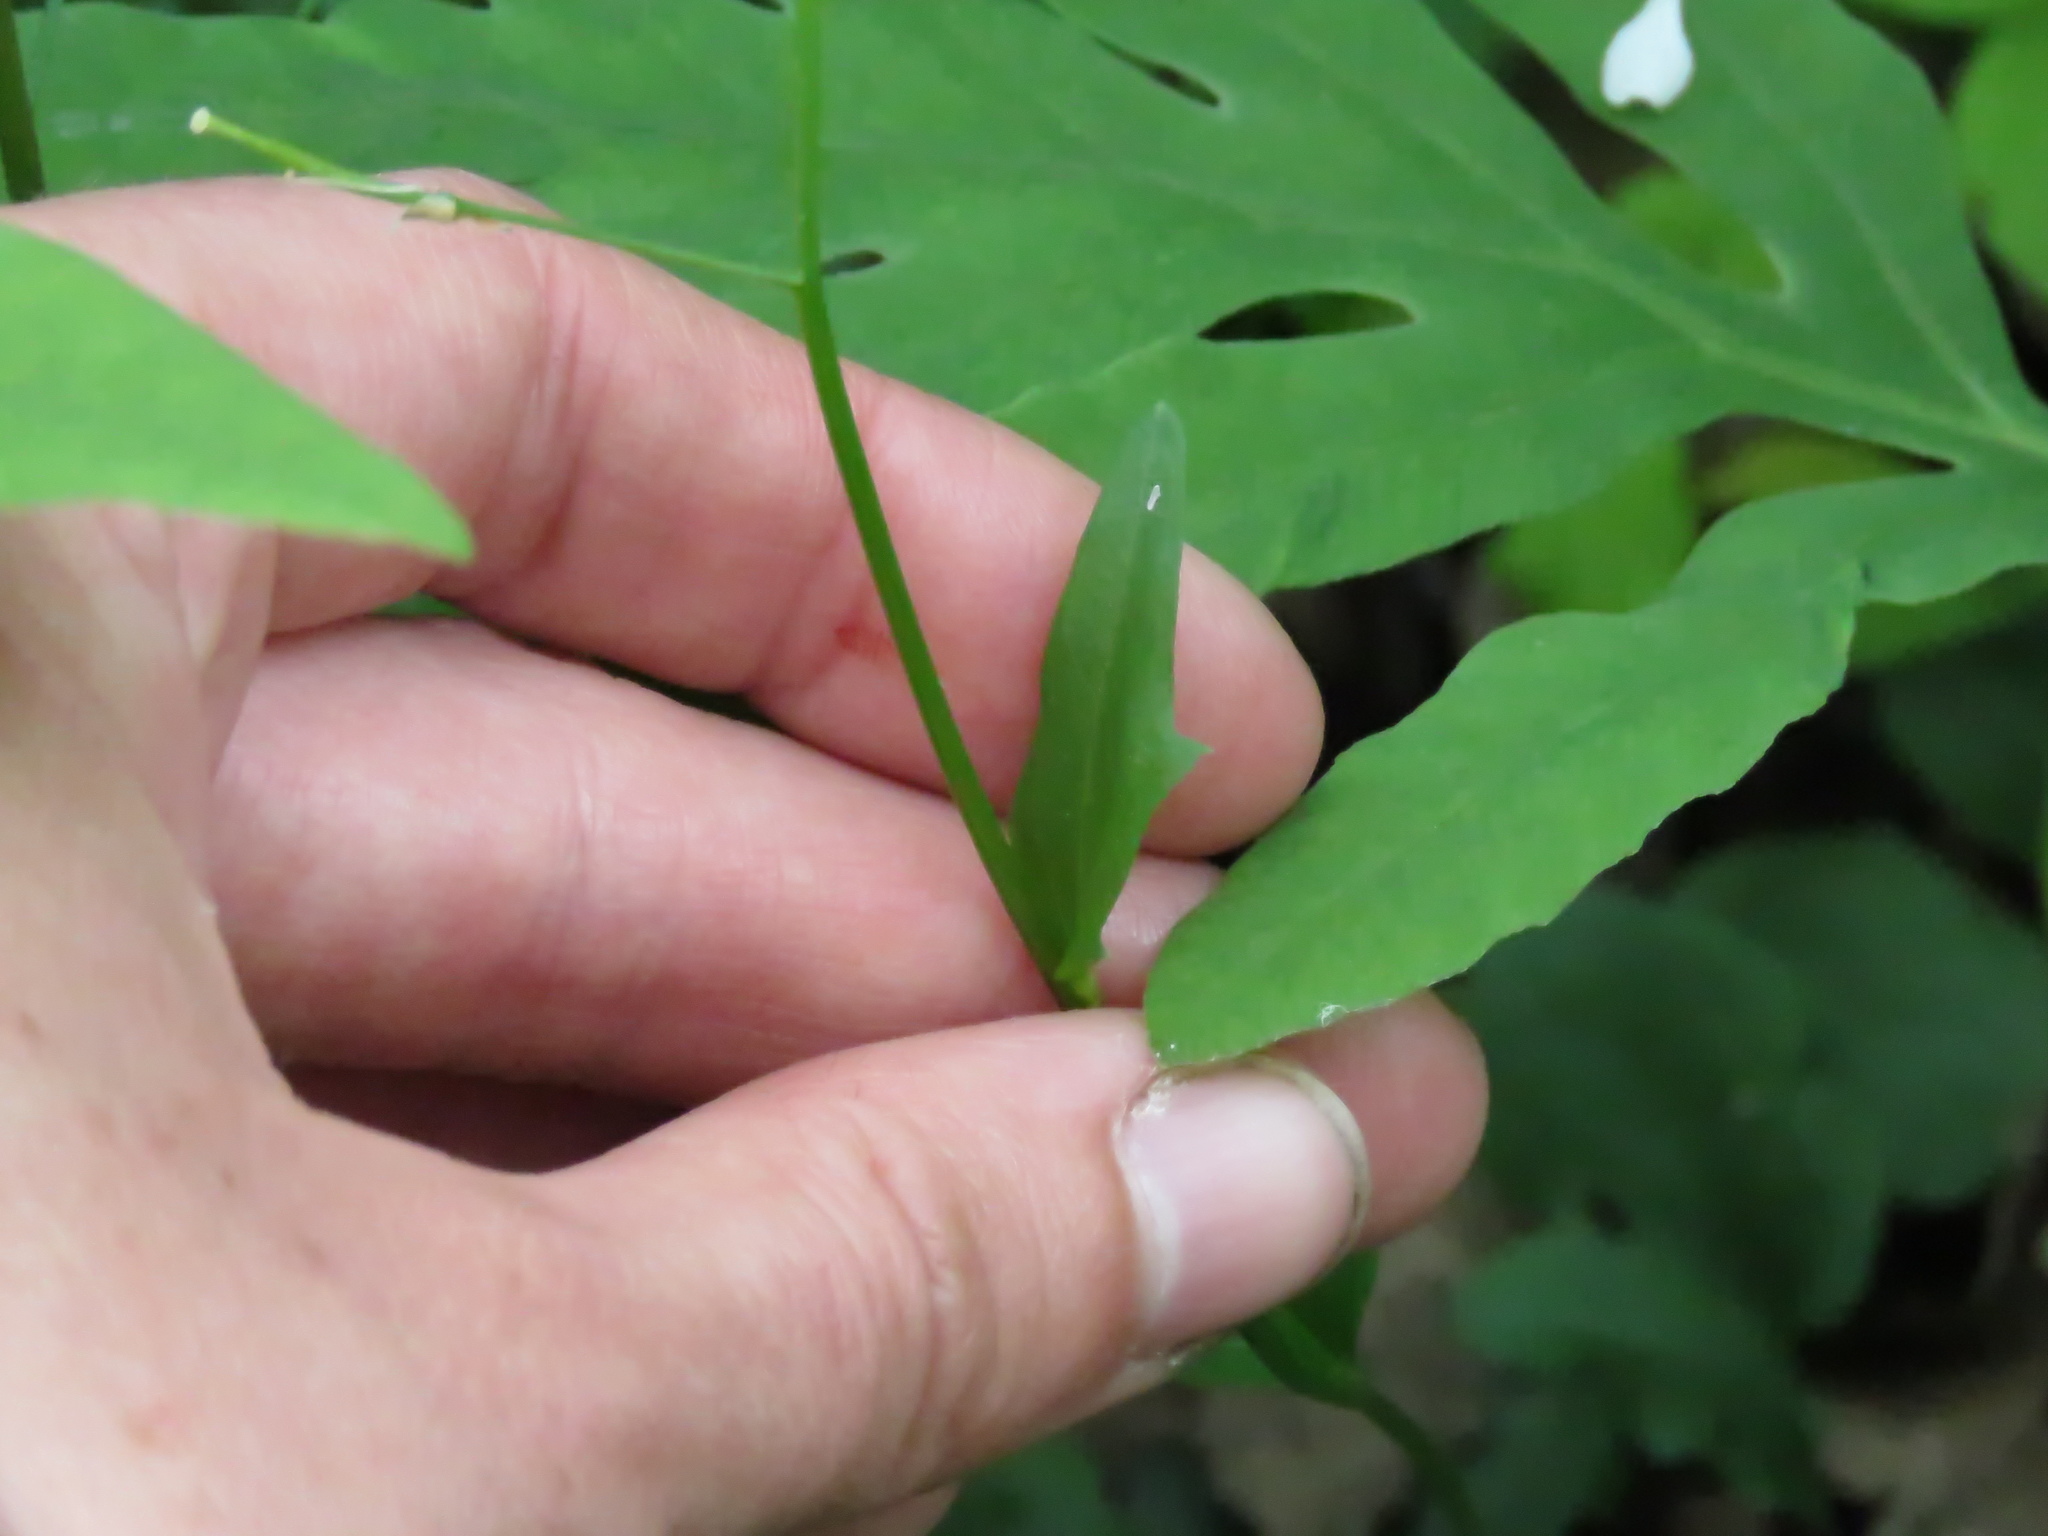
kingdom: Plantae
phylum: Tracheophyta
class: Magnoliopsida
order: Brassicales
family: Brassicaceae
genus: Cardamine
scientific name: Cardamine bulbosa
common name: Spring cress
